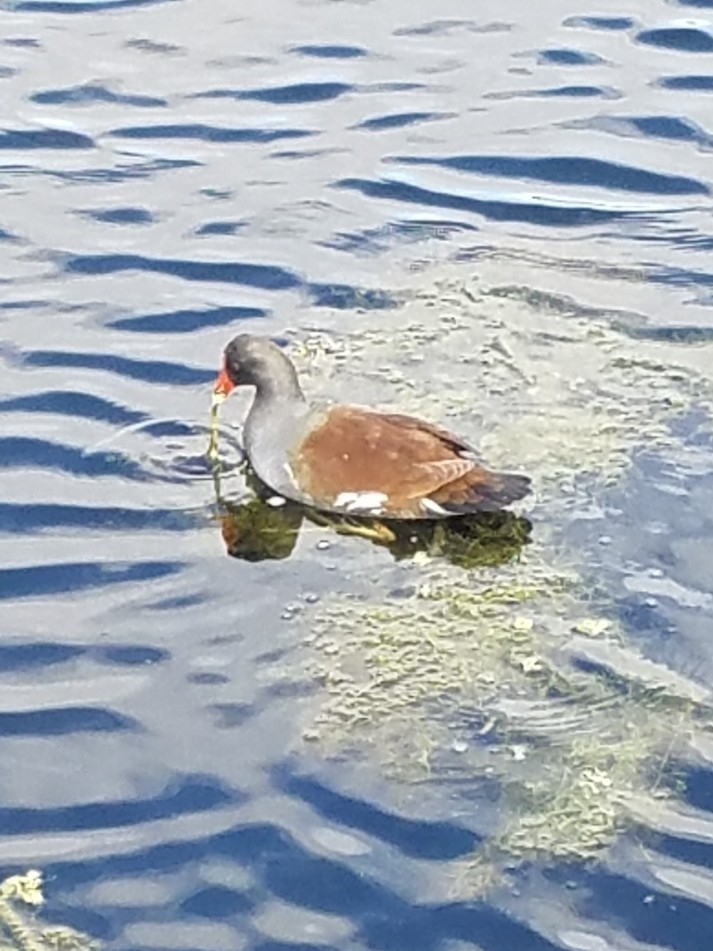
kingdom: Animalia
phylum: Chordata
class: Aves
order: Gruiformes
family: Rallidae
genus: Gallinula
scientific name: Gallinula chloropus
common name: Common moorhen
